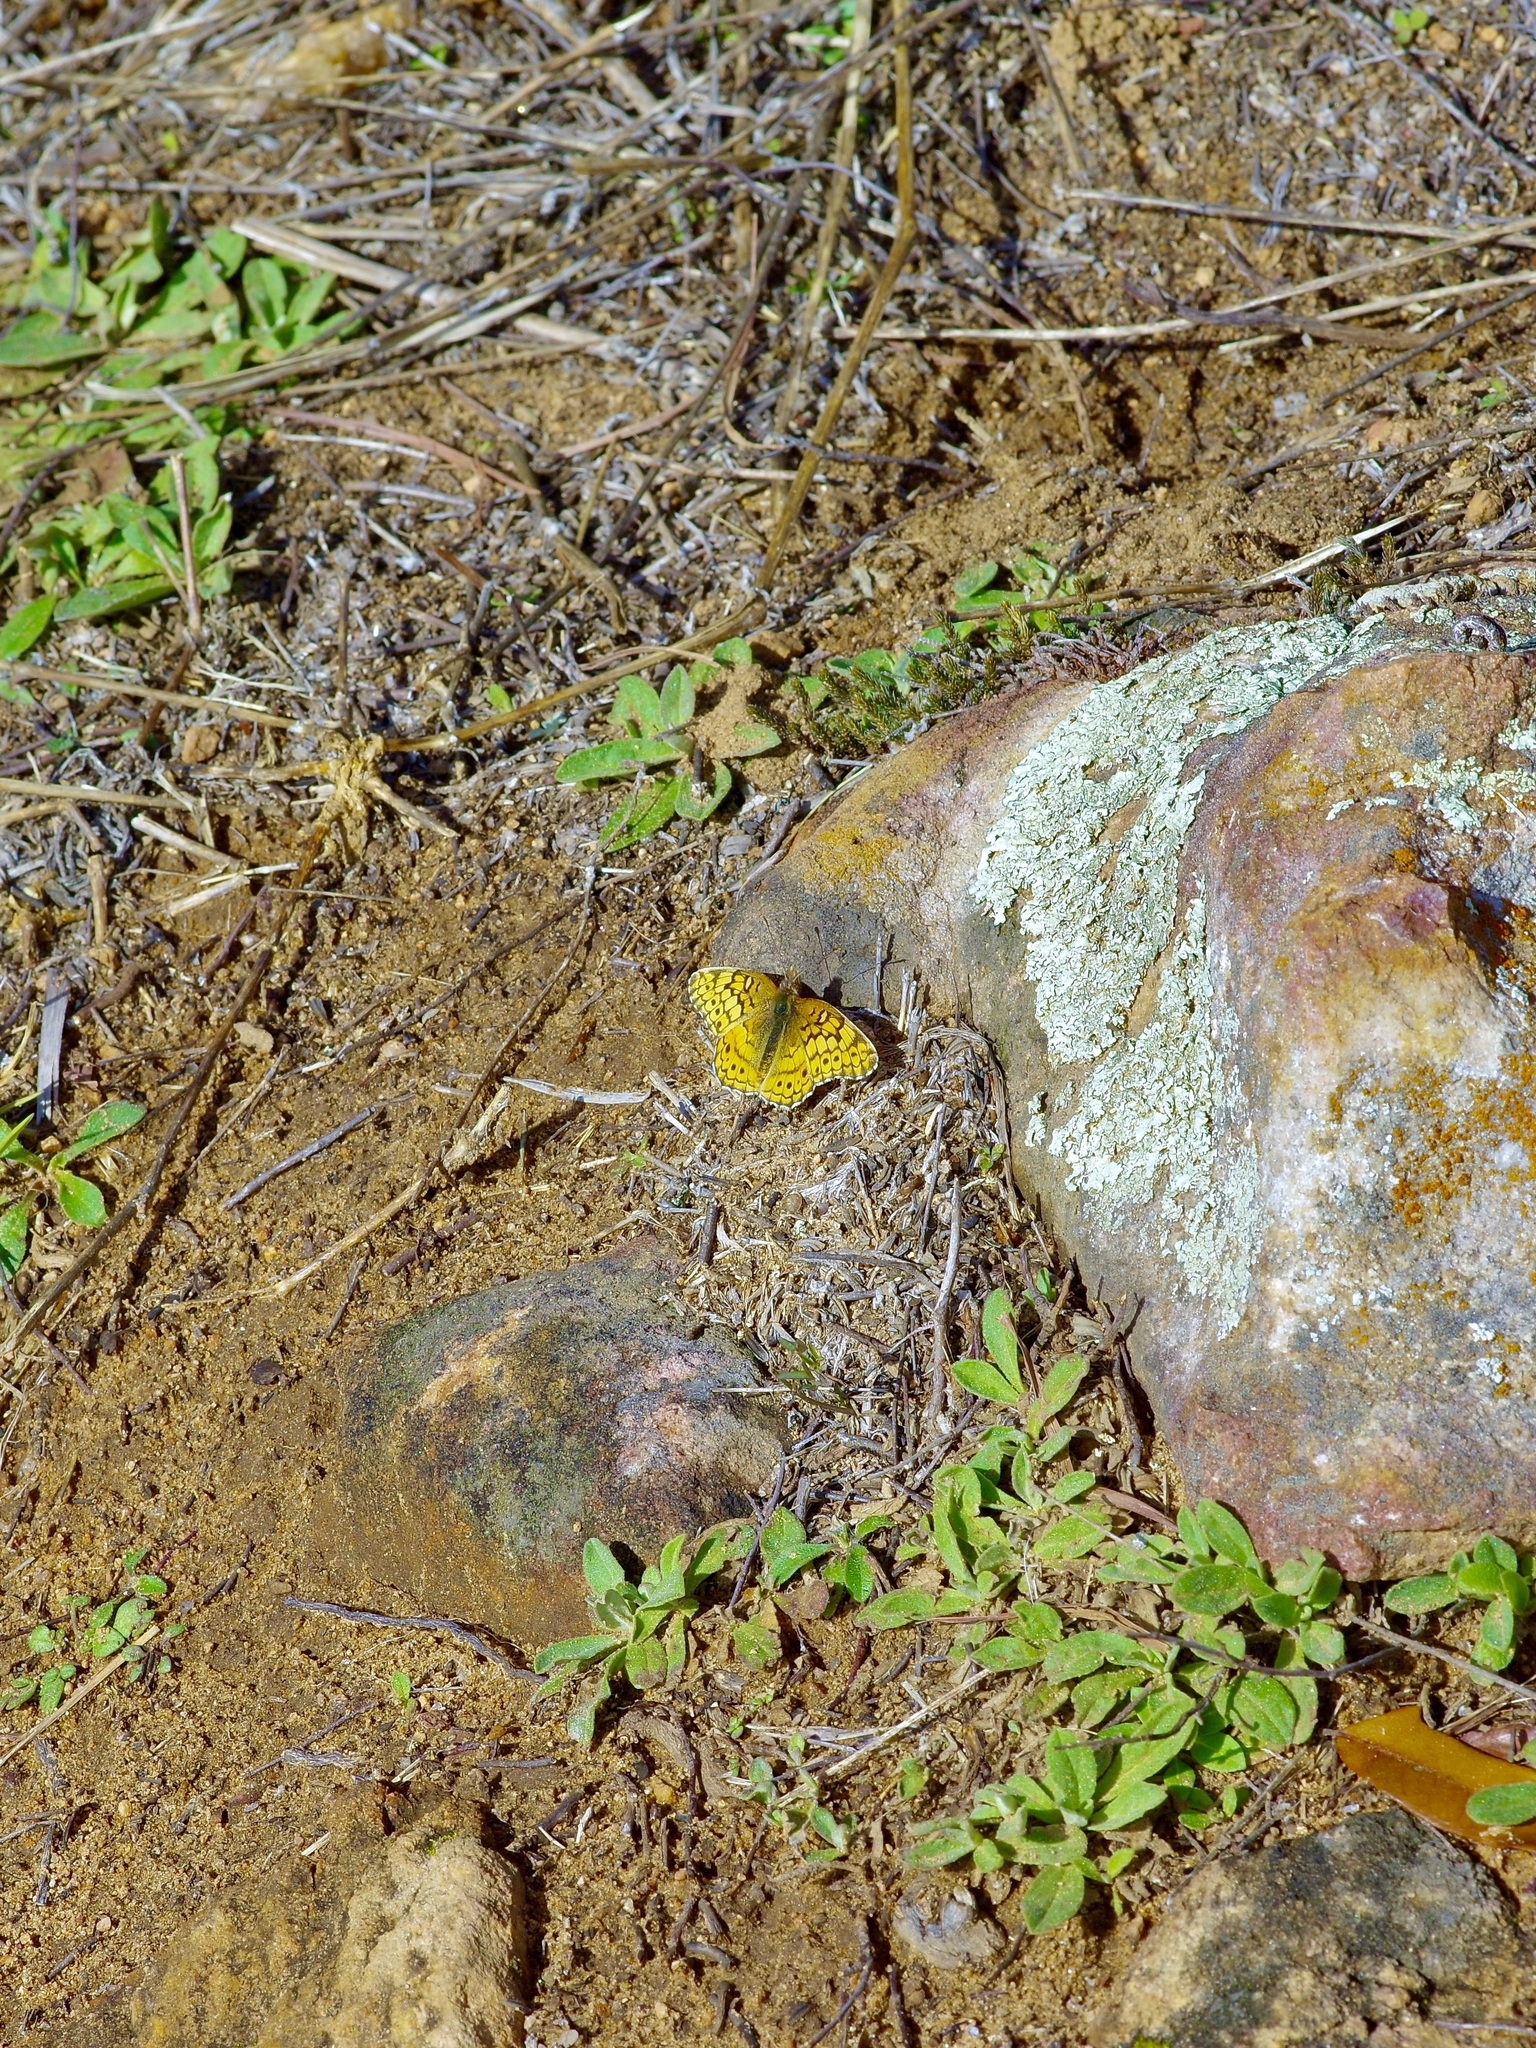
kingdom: Animalia
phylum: Arthropoda
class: Insecta
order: Lepidoptera
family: Nymphalidae
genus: Euptoieta
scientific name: Euptoieta claudia
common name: Variegated fritillary
